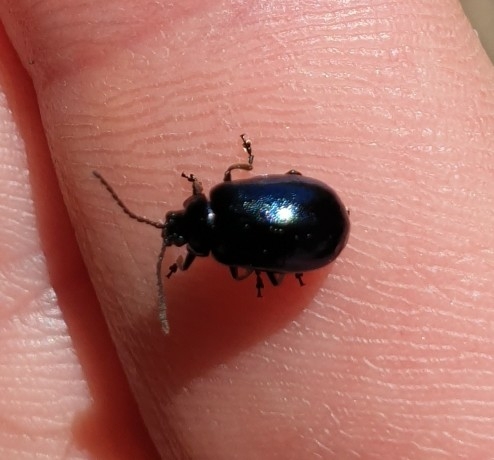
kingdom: Animalia
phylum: Arthropoda
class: Insecta
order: Coleoptera
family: Chrysomelidae
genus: Agelastica
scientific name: Agelastica alni
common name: Alder leaf beetle
